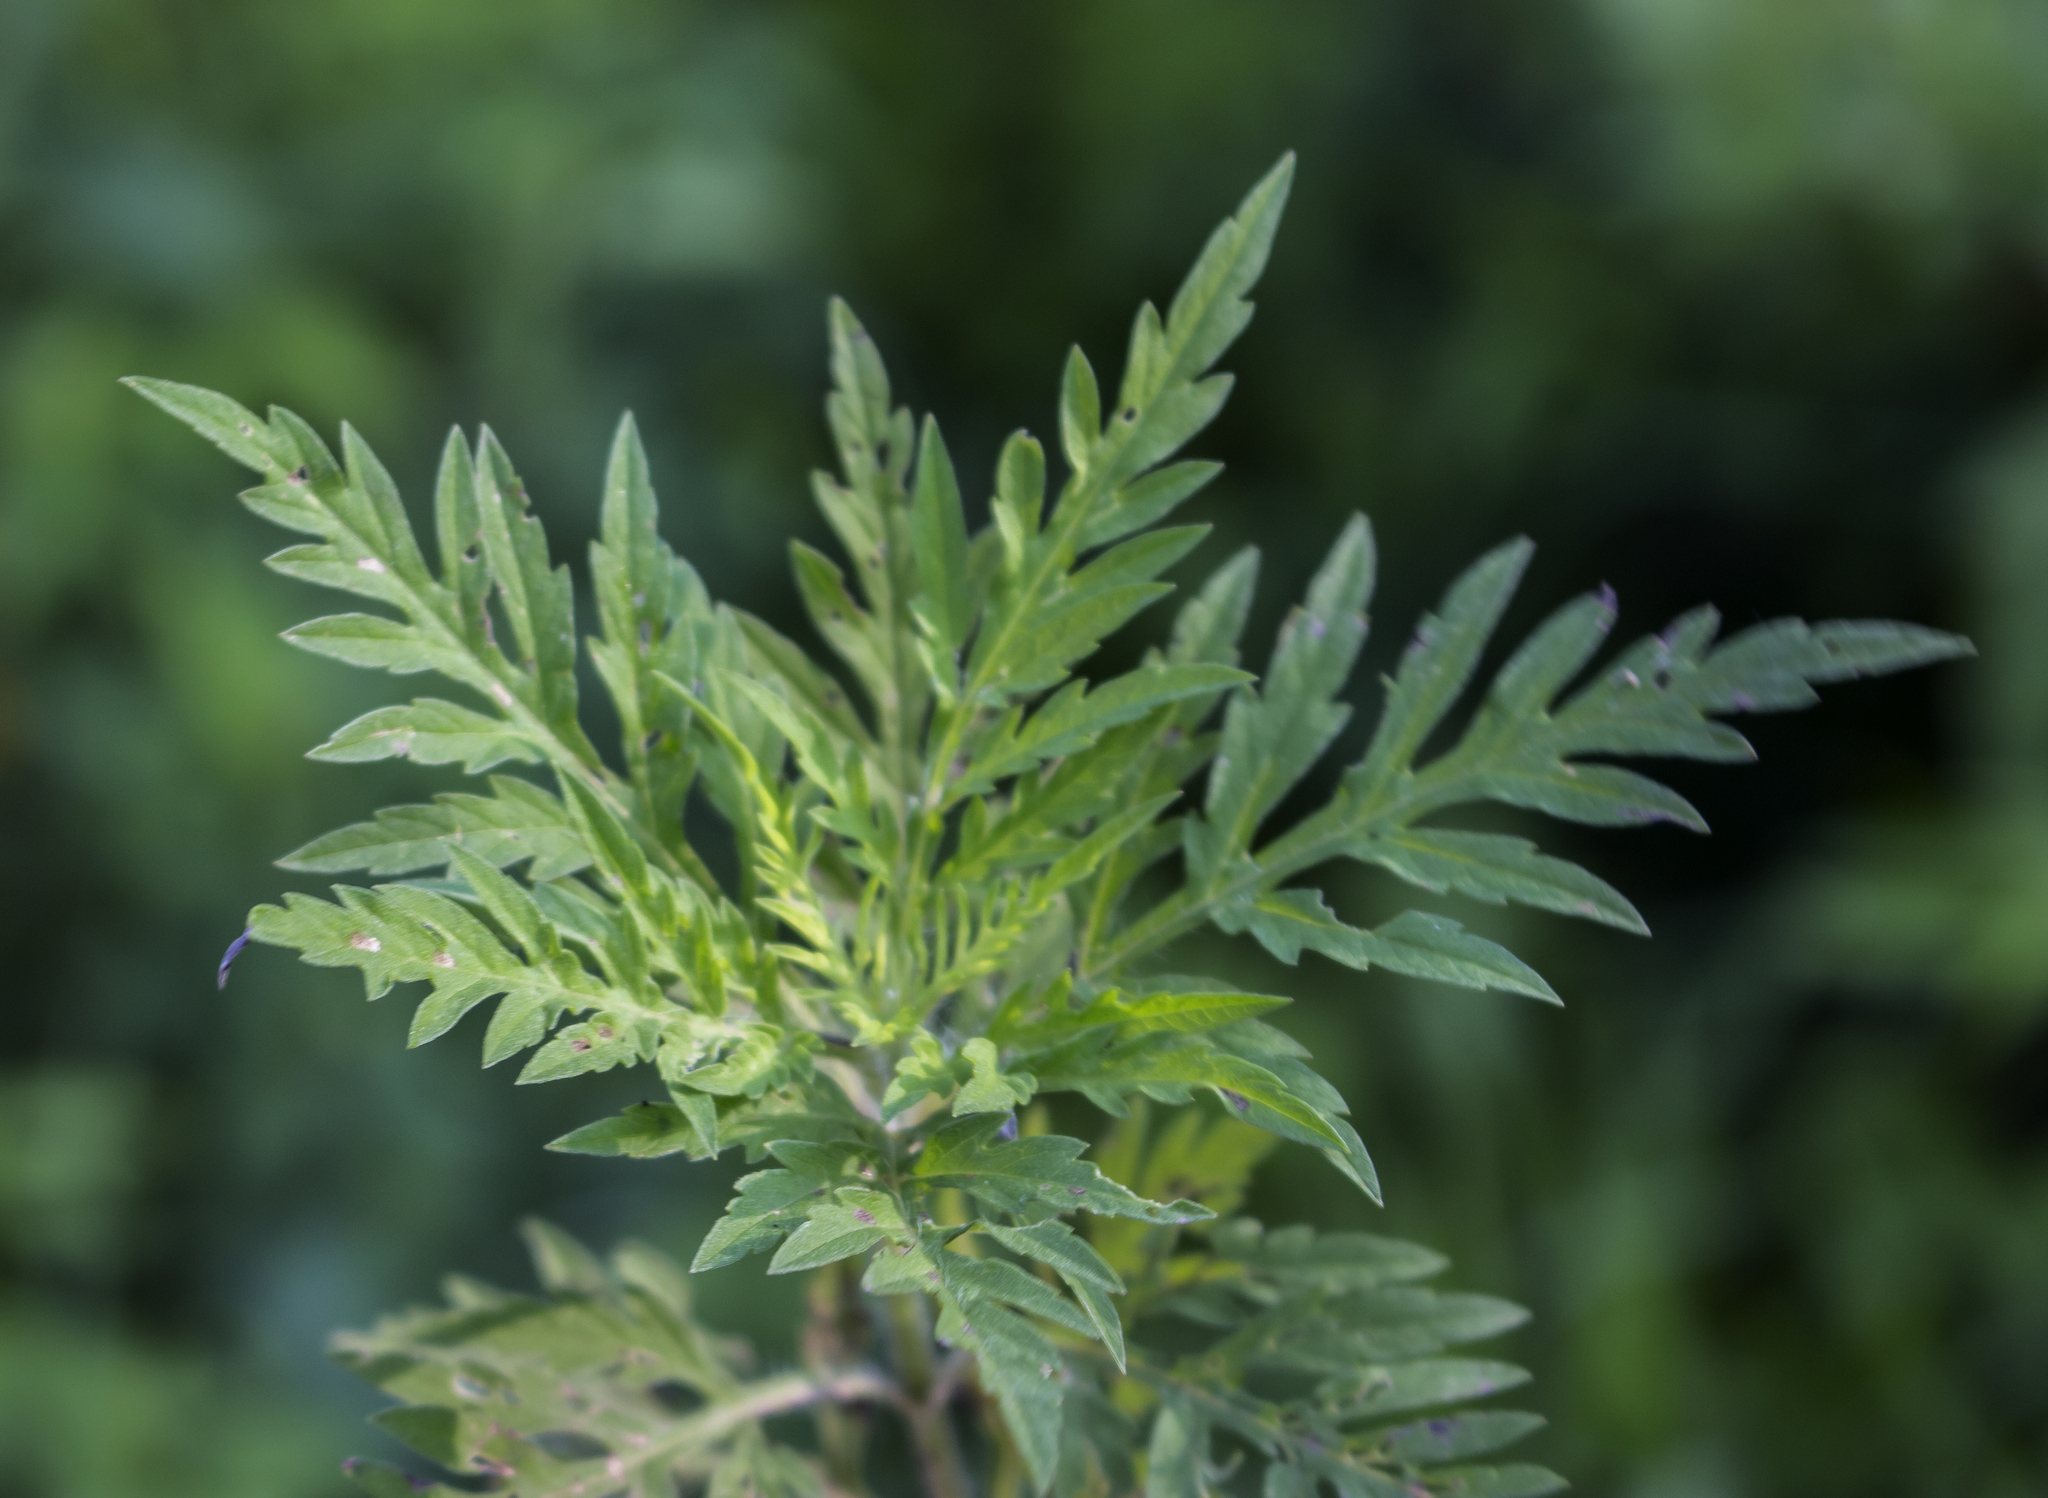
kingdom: Plantae
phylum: Tracheophyta
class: Magnoliopsida
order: Asterales
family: Asteraceae
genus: Ambrosia
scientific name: Ambrosia artemisiifolia
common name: Annual ragweed
